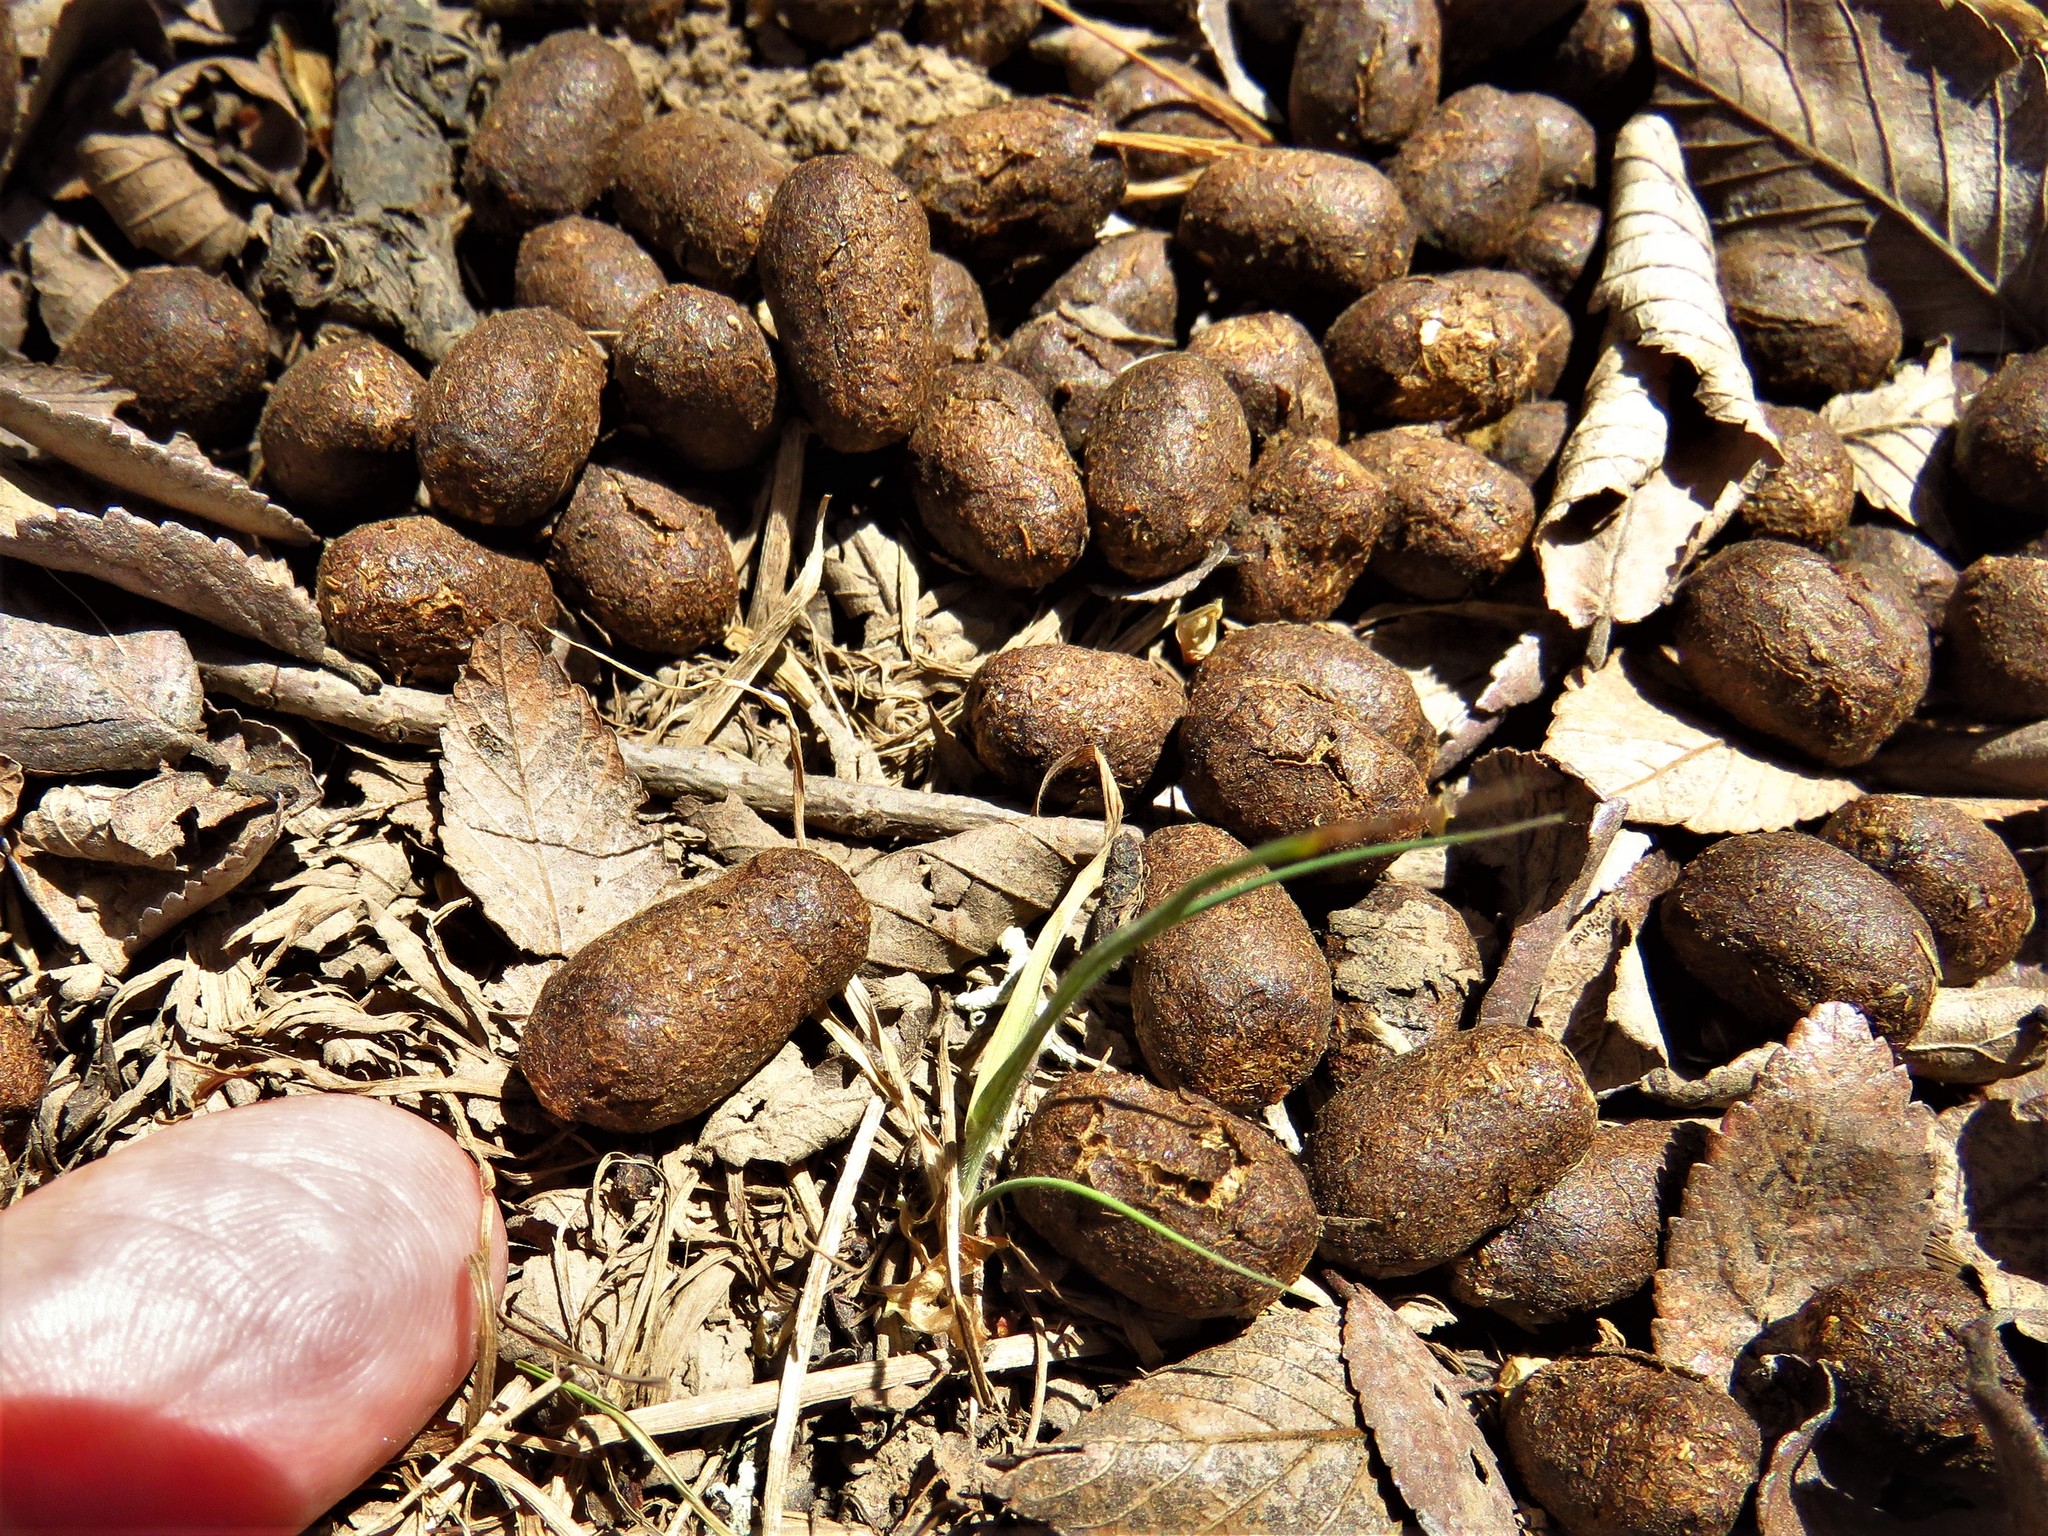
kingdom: Animalia
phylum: Chordata
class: Mammalia
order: Artiodactyla
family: Cervidae
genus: Odocoileus
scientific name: Odocoileus virginianus
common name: White-tailed deer
